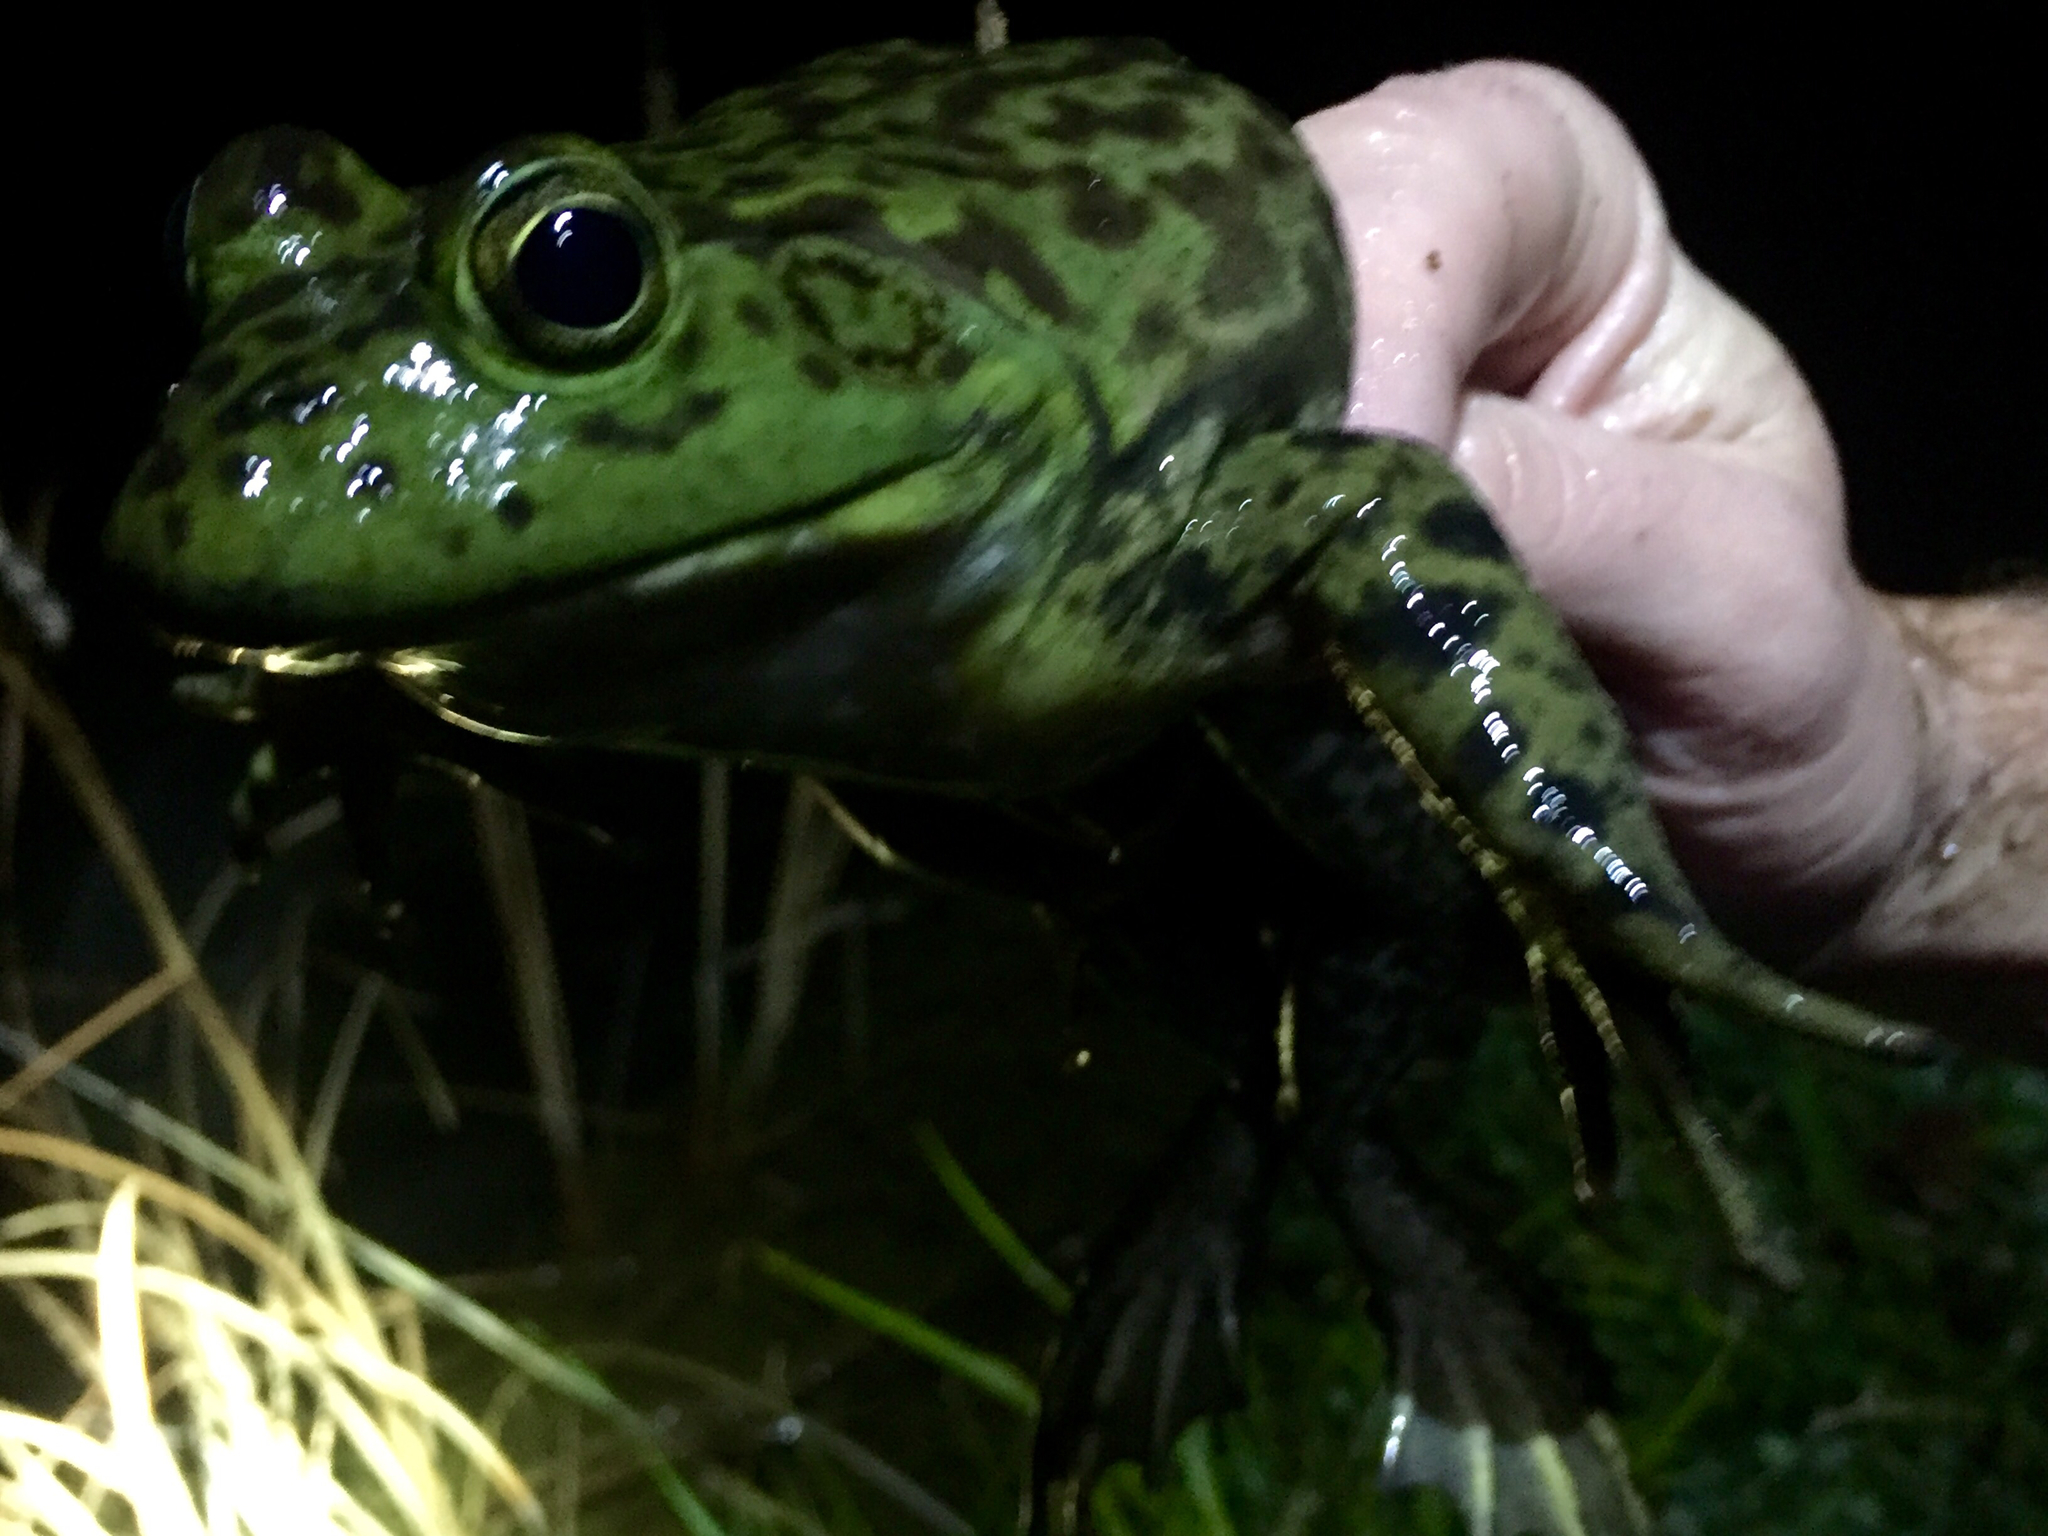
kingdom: Animalia
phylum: Chordata
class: Amphibia
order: Anura
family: Ranidae
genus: Lithobates
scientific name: Lithobates catesbeianus
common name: American bullfrog
